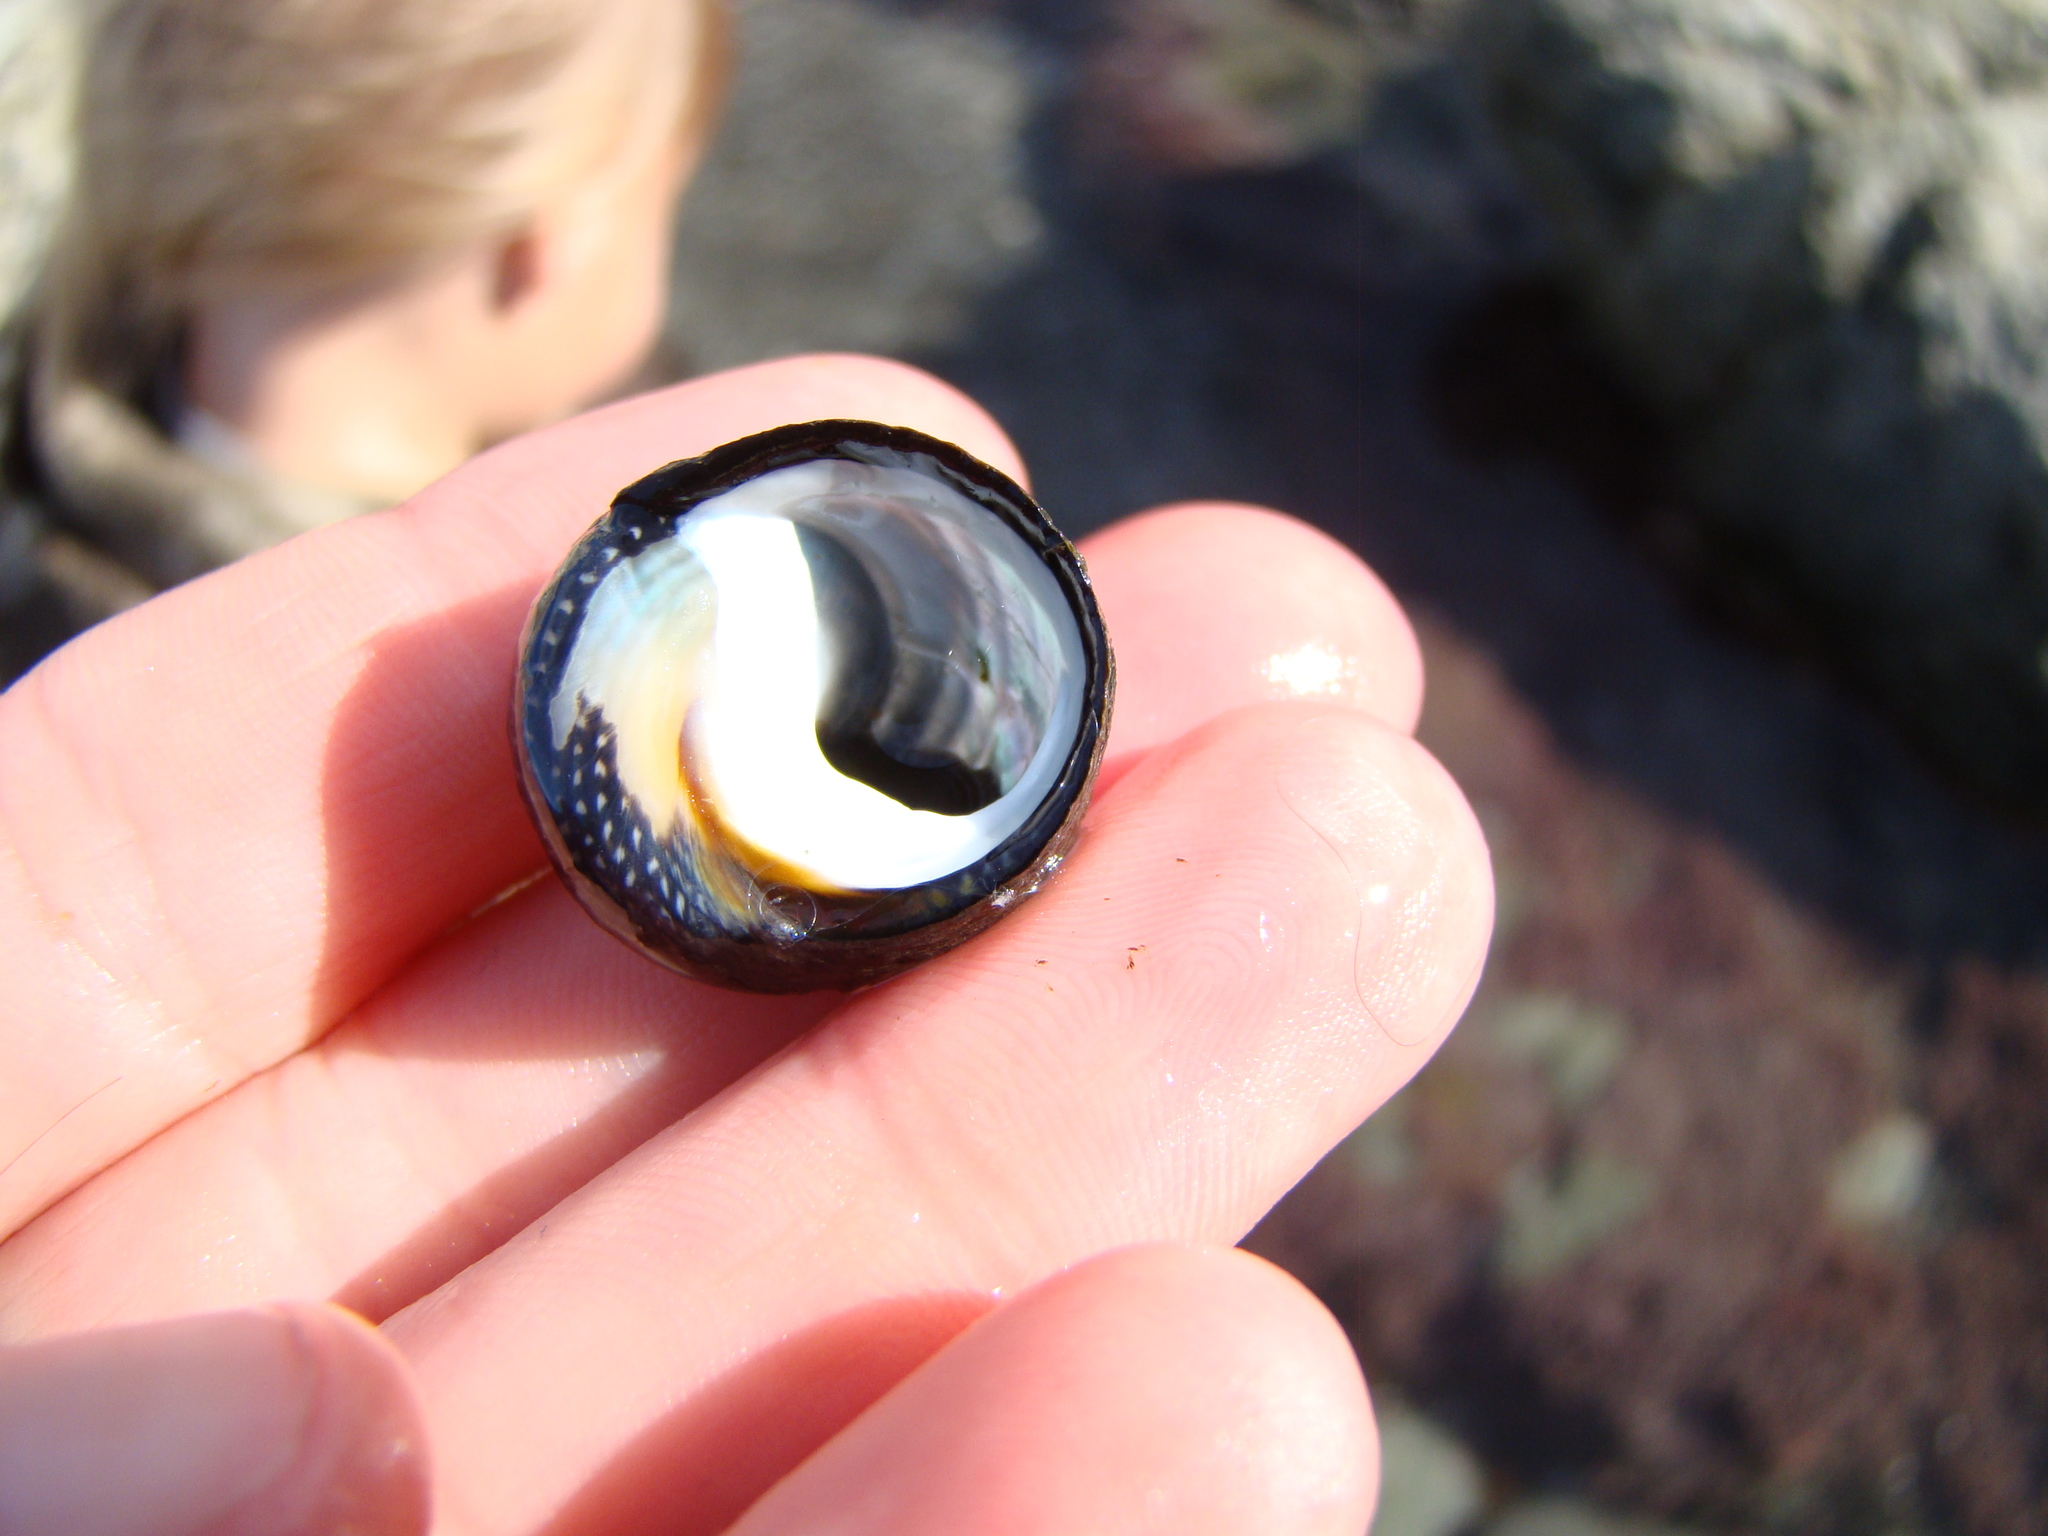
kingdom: Animalia
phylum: Mollusca
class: Gastropoda
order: Trochida
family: Trochidae
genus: Diloma
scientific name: Diloma aethiops
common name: Scorched monodont
